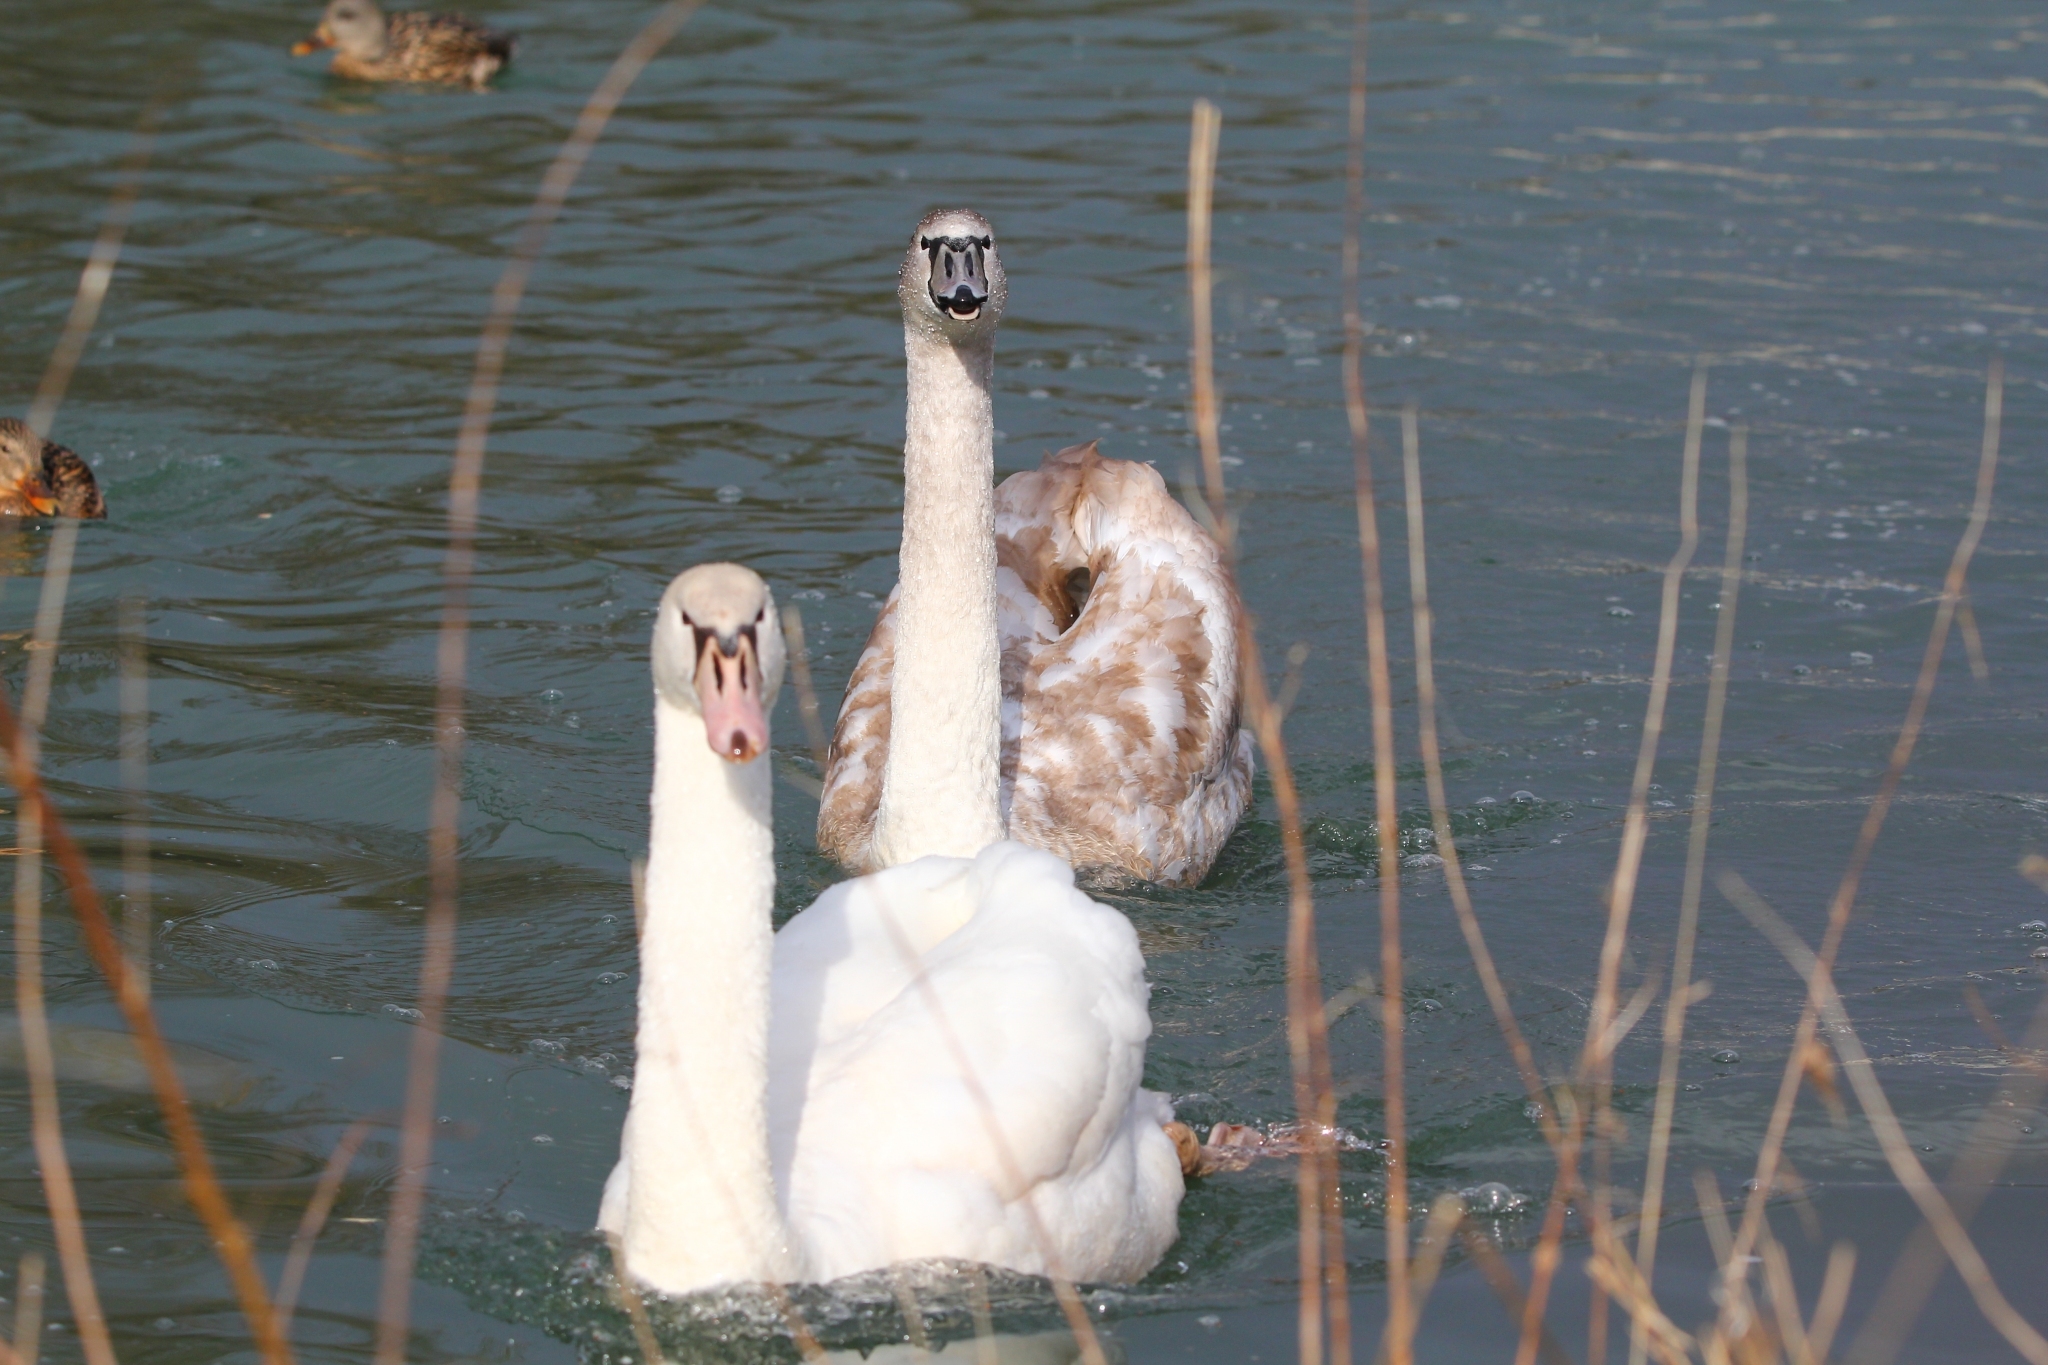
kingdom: Animalia
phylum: Chordata
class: Aves
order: Anseriformes
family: Anatidae
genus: Cygnus
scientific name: Cygnus olor
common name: Mute swan
